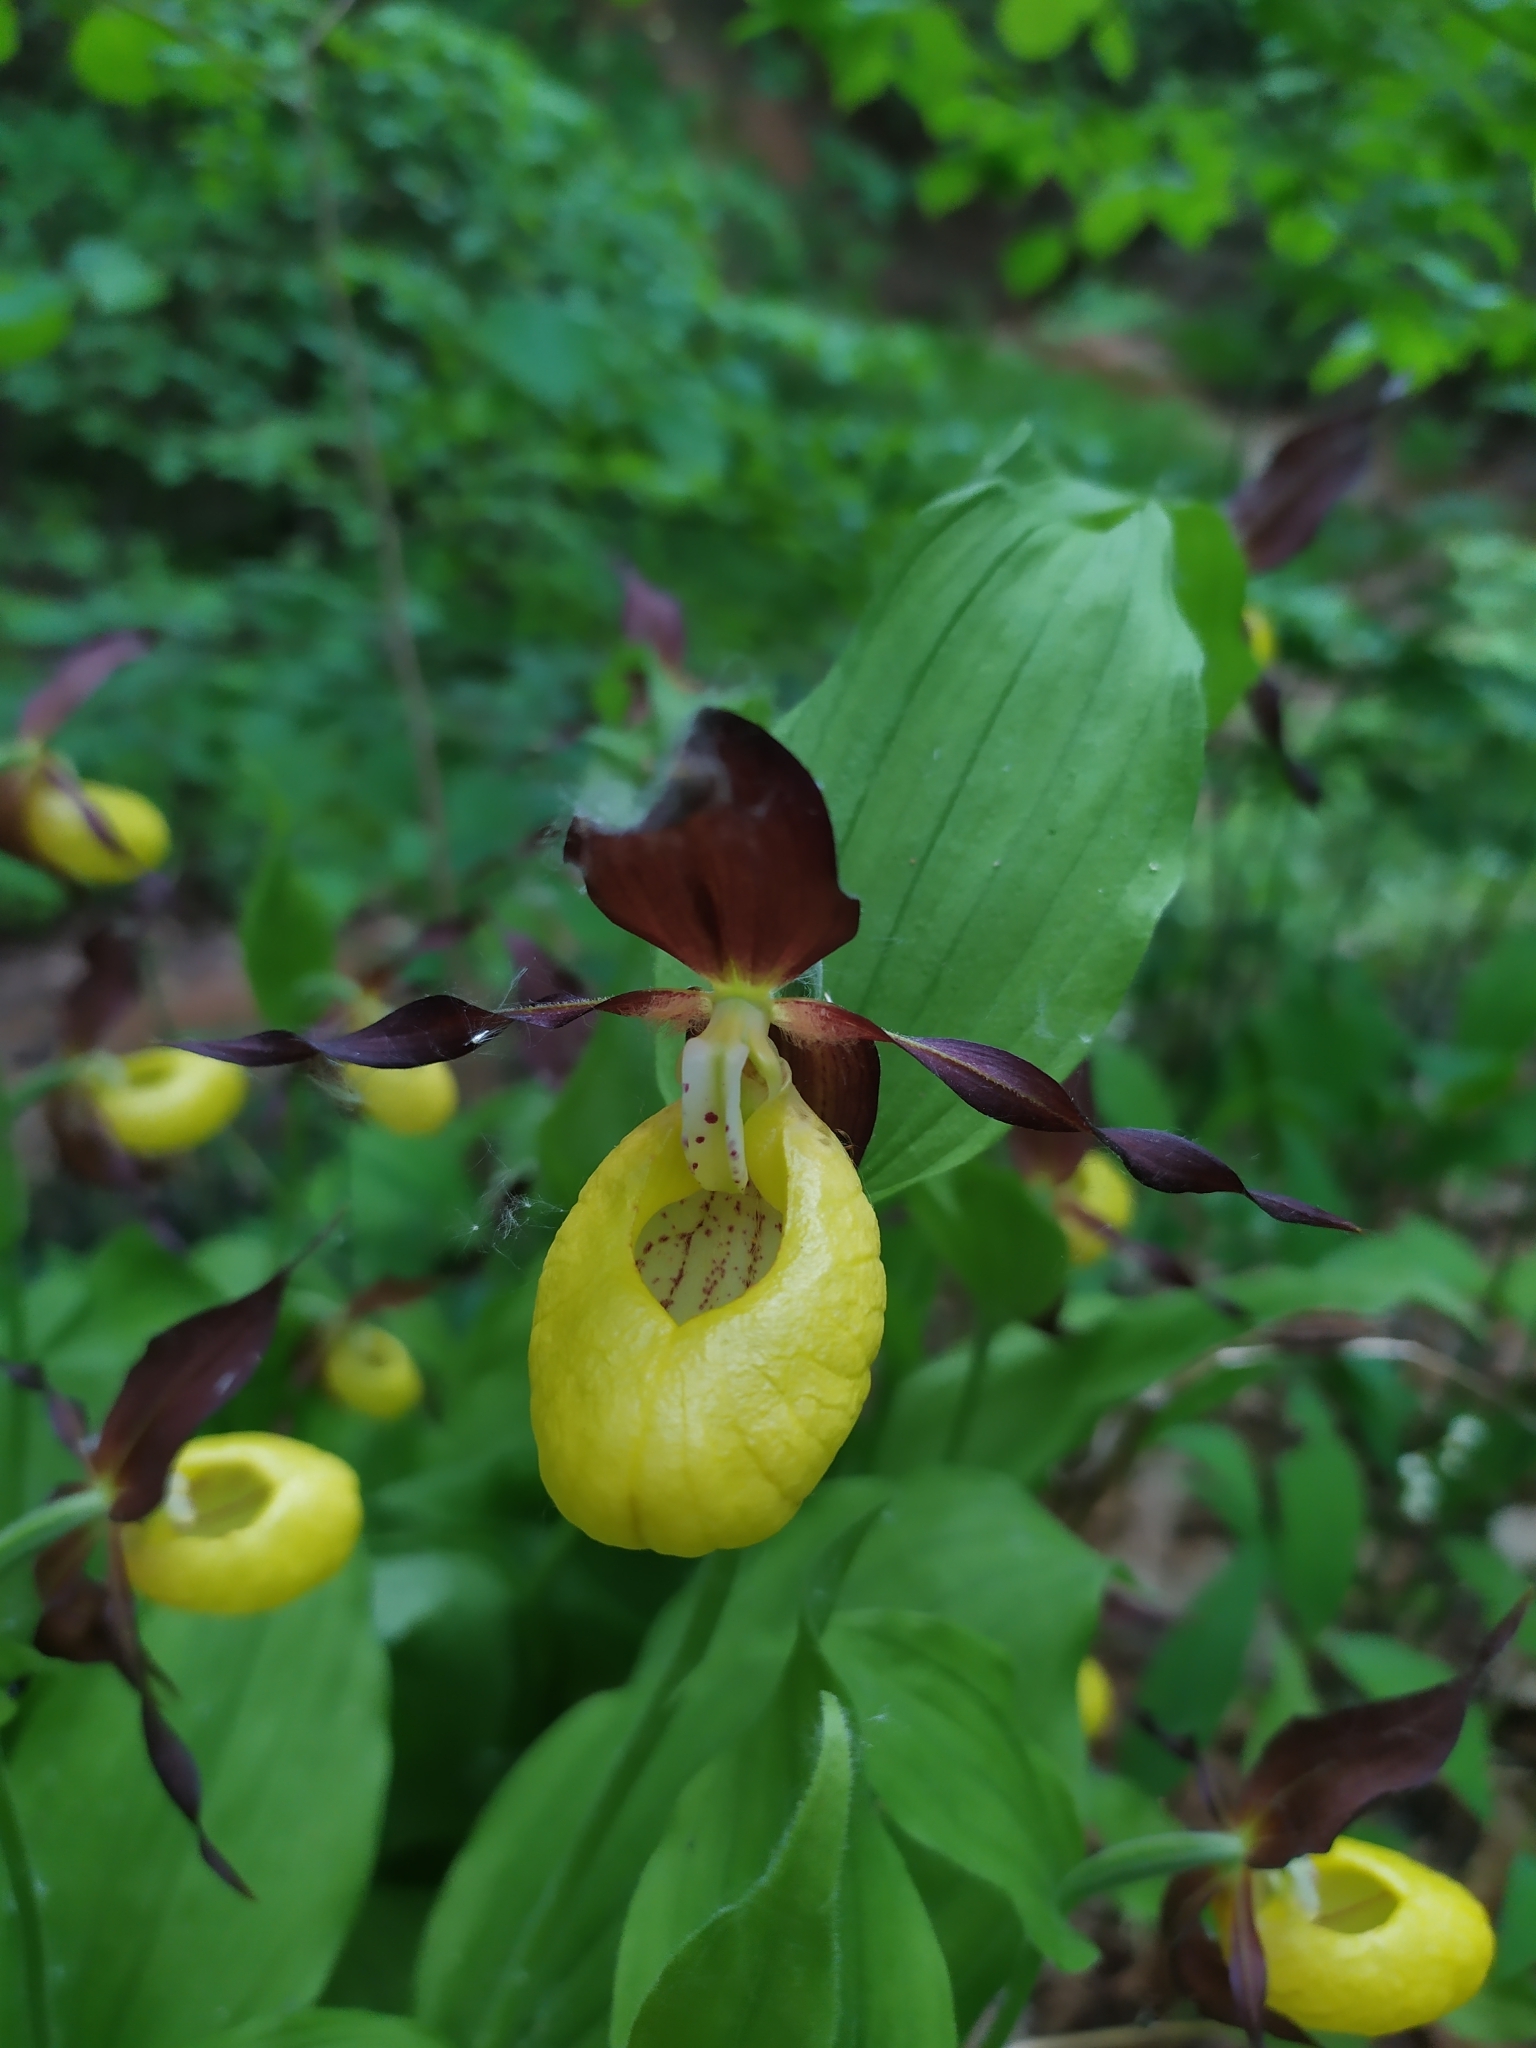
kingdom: Plantae
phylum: Tracheophyta
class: Liliopsida
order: Asparagales
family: Orchidaceae
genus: Cypripedium
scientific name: Cypripedium calceolus
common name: Lady's-slipper
